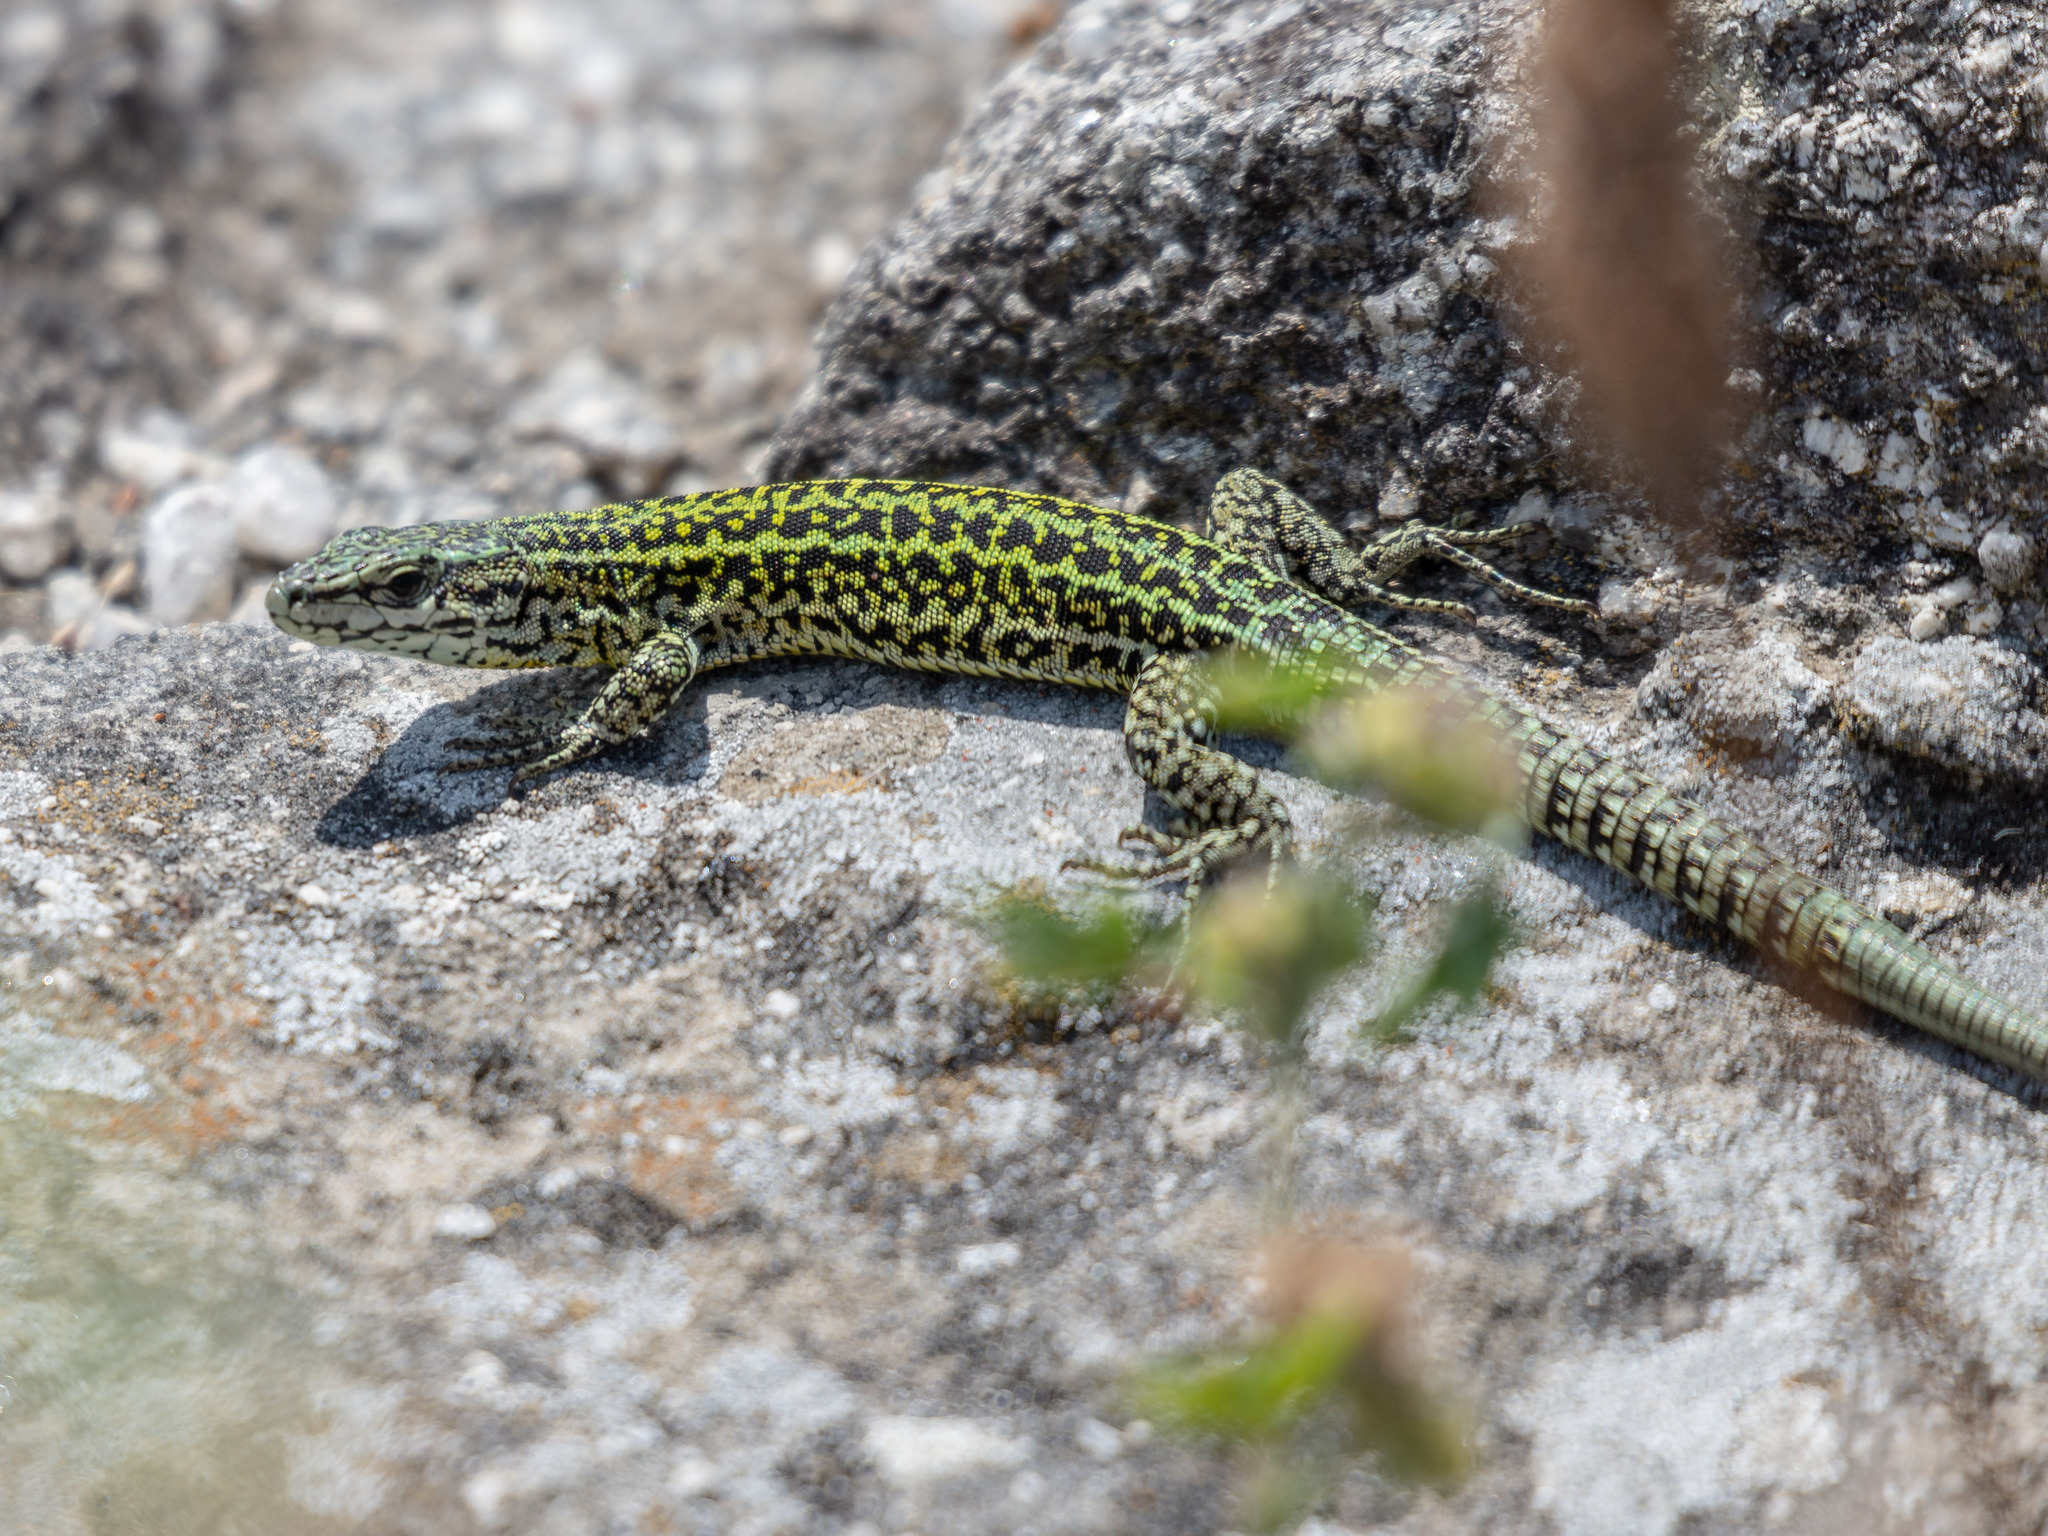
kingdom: Animalia
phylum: Chordata
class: Squamata
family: Lacertidae
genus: Podarcis
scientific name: Podarcis bocagei
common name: Bocage's wall lizard
